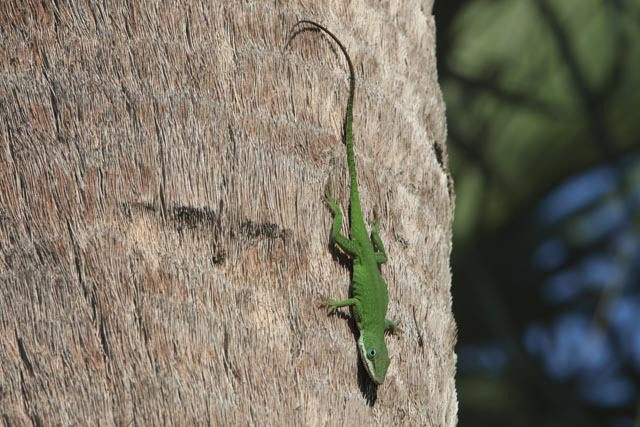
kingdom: Animalia
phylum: Chordata
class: Squamata
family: Dactyloidae
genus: Anolis
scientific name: Anolis carolinensis
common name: Green anole
